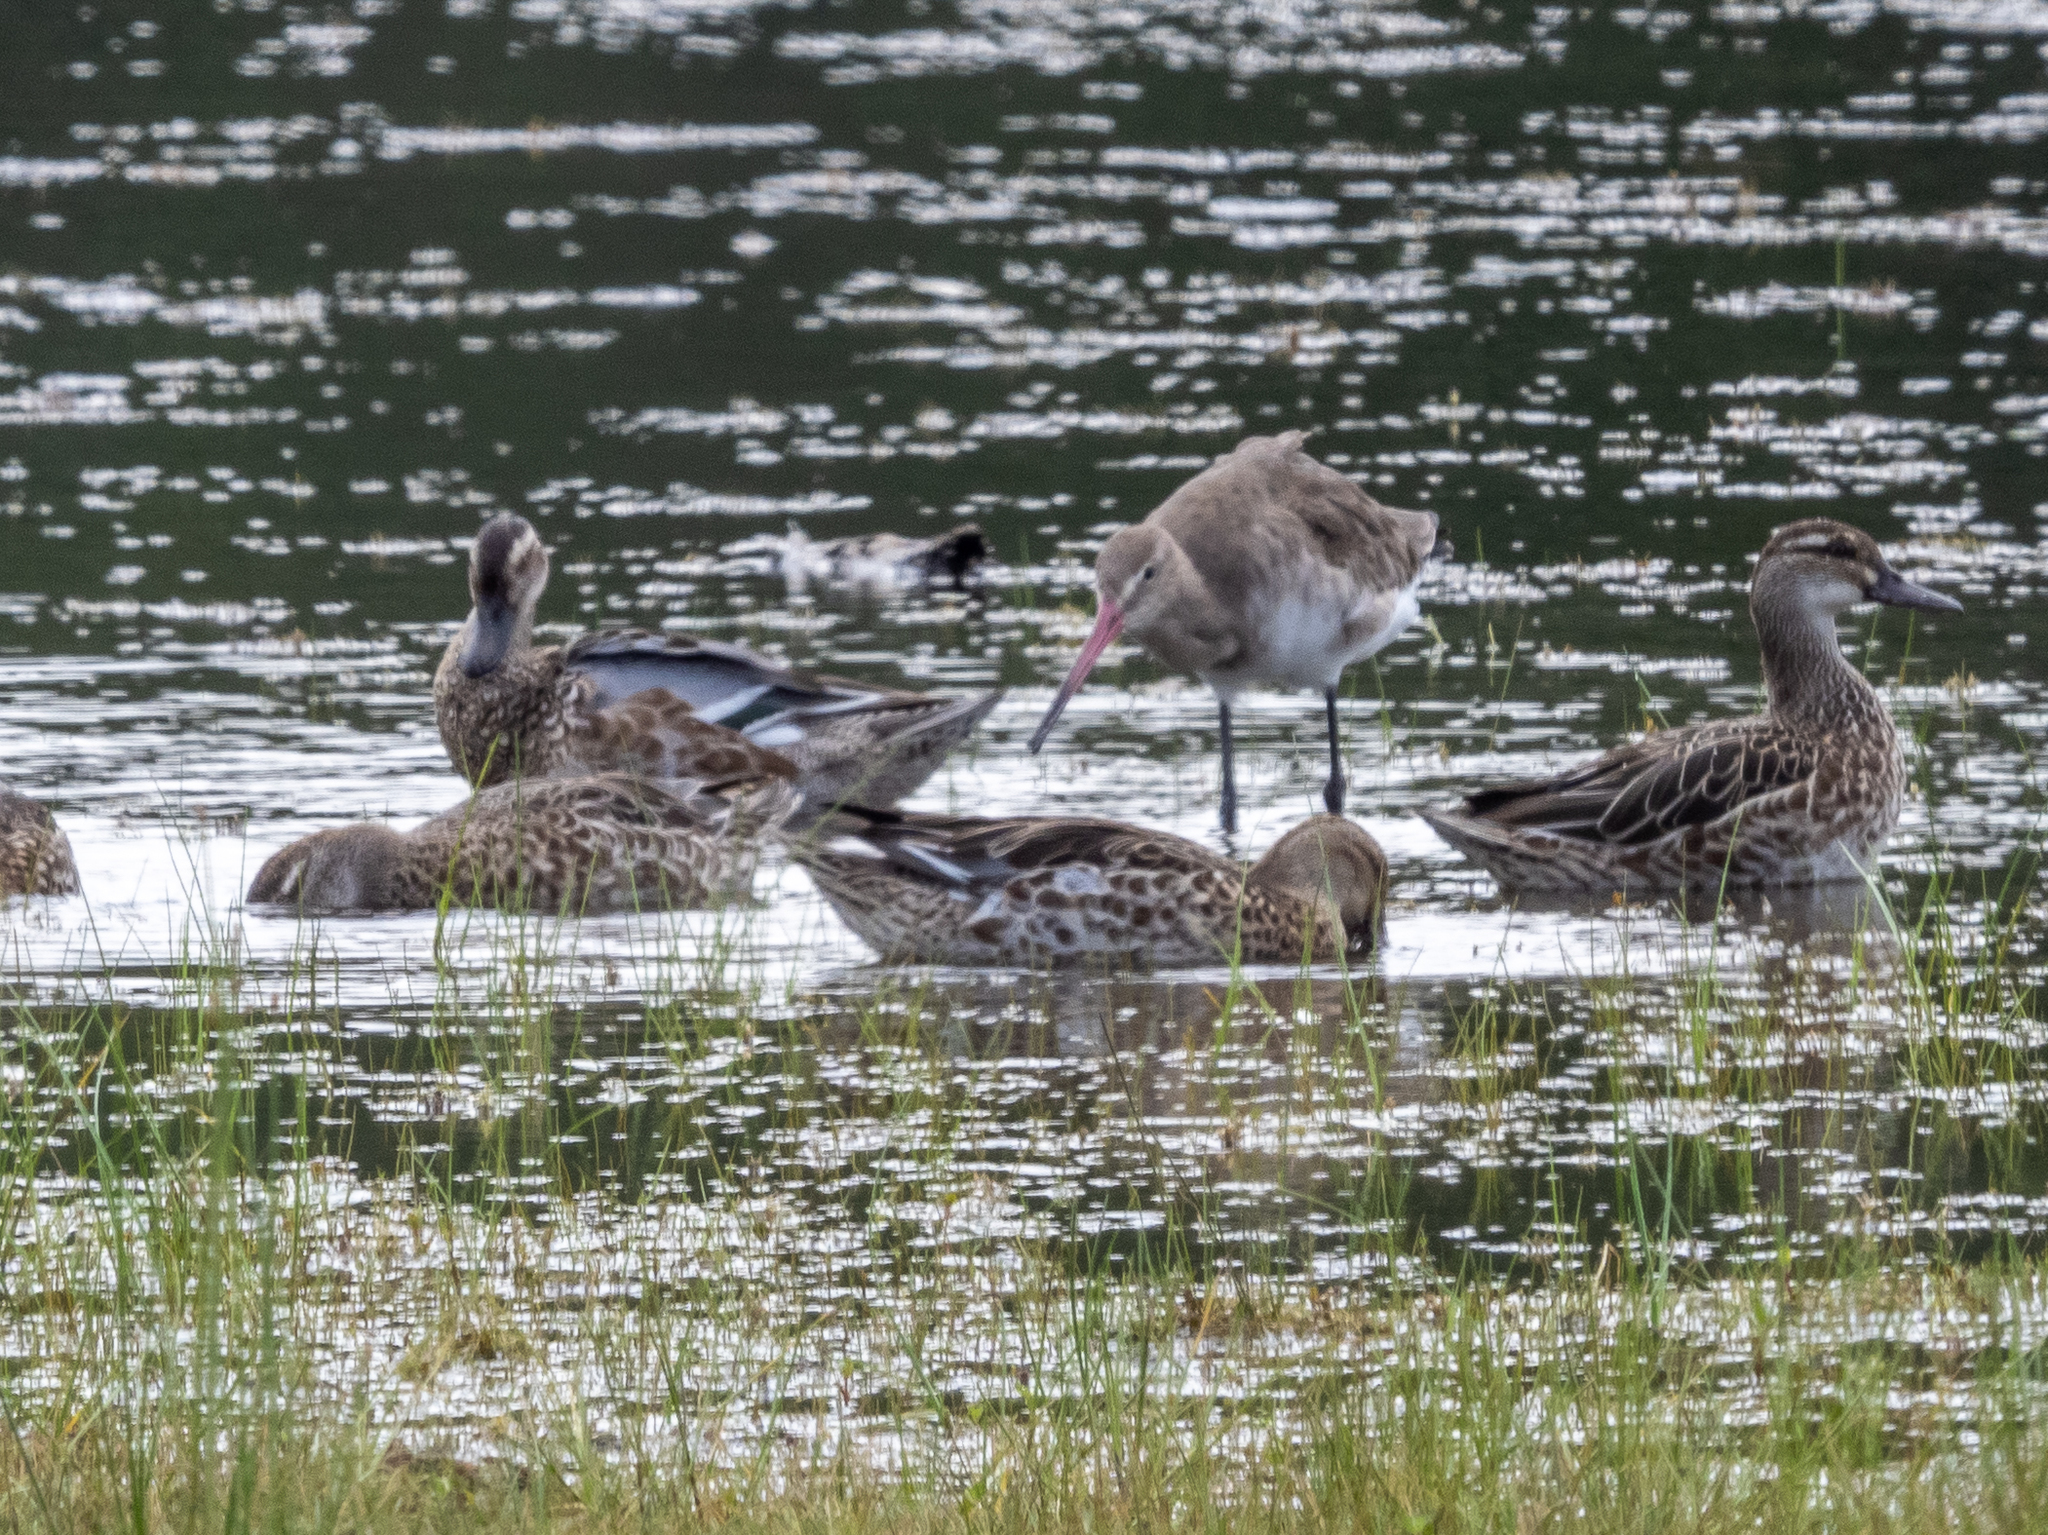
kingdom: Animalia
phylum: Chordata
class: Aves
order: Anseriformes
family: Anatidae
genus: Spatula
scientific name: Spatula querquedula
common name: Garganey
